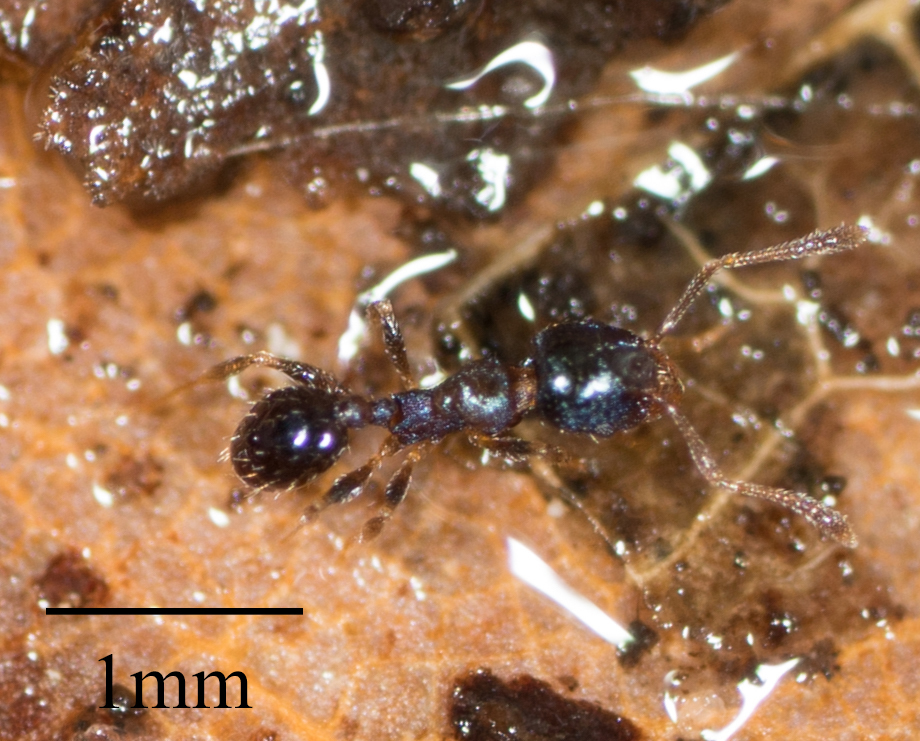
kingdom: Animalia
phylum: Arthropoda
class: Insecta
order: Hymenoptera
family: Formicidae
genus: Pheidole
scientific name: Pheidole metallescens
